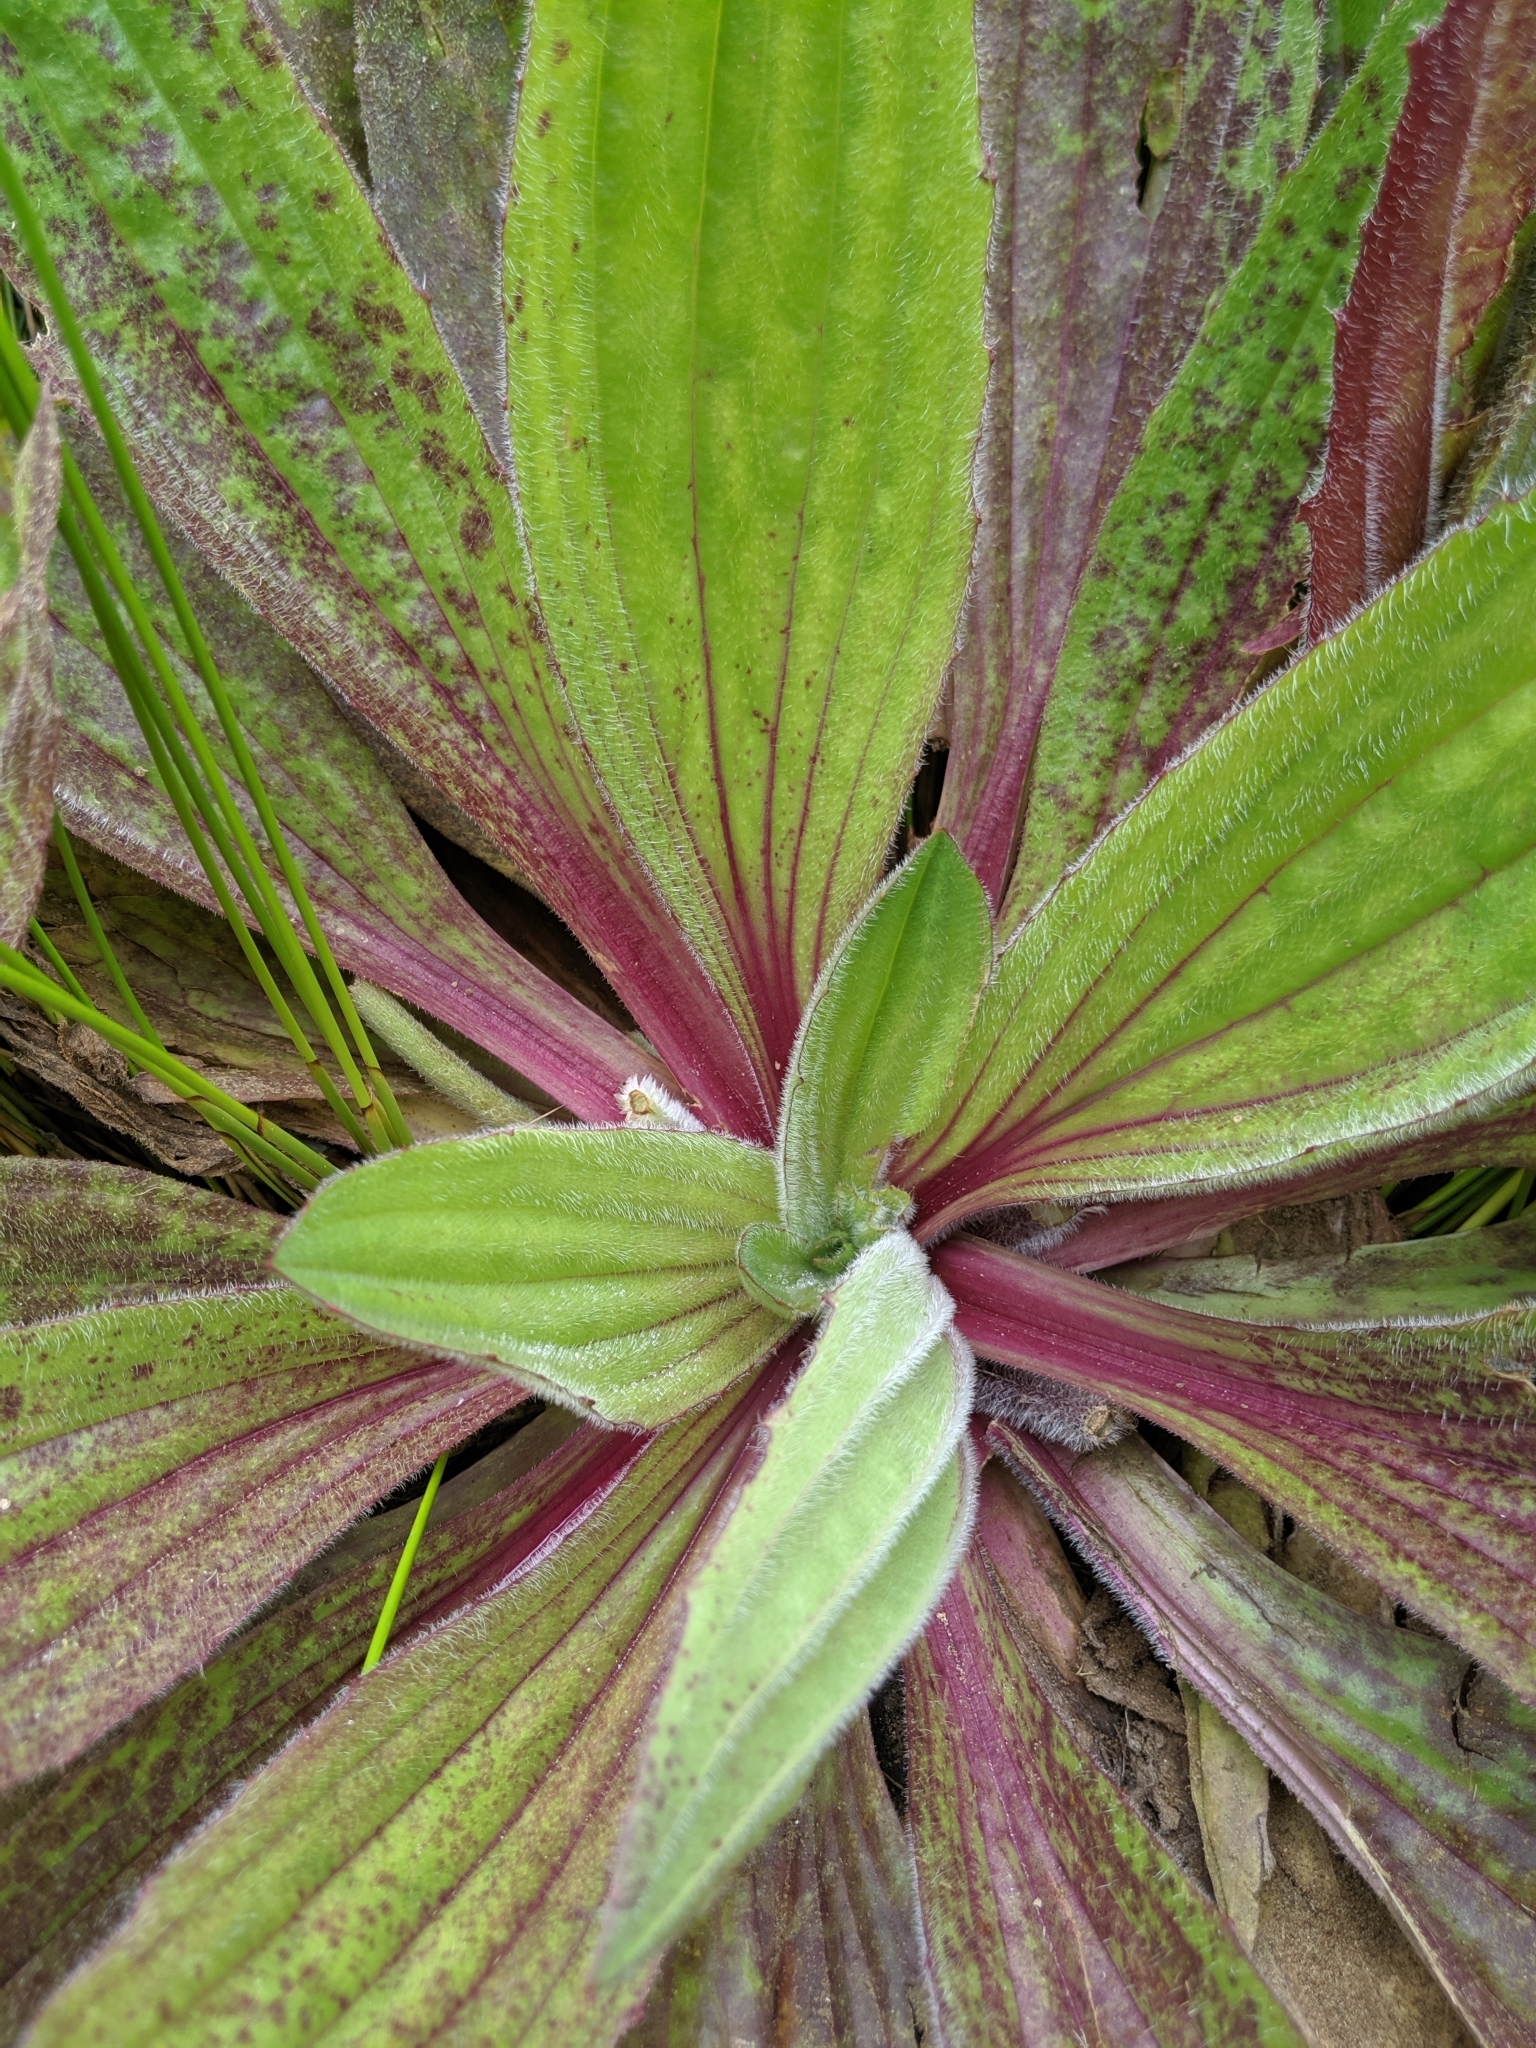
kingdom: Plantae
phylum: Tracheophyta
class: Magnoliopsida
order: Lamiales
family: Plantaginaceae
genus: Plantago
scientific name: Plantago subnuda
